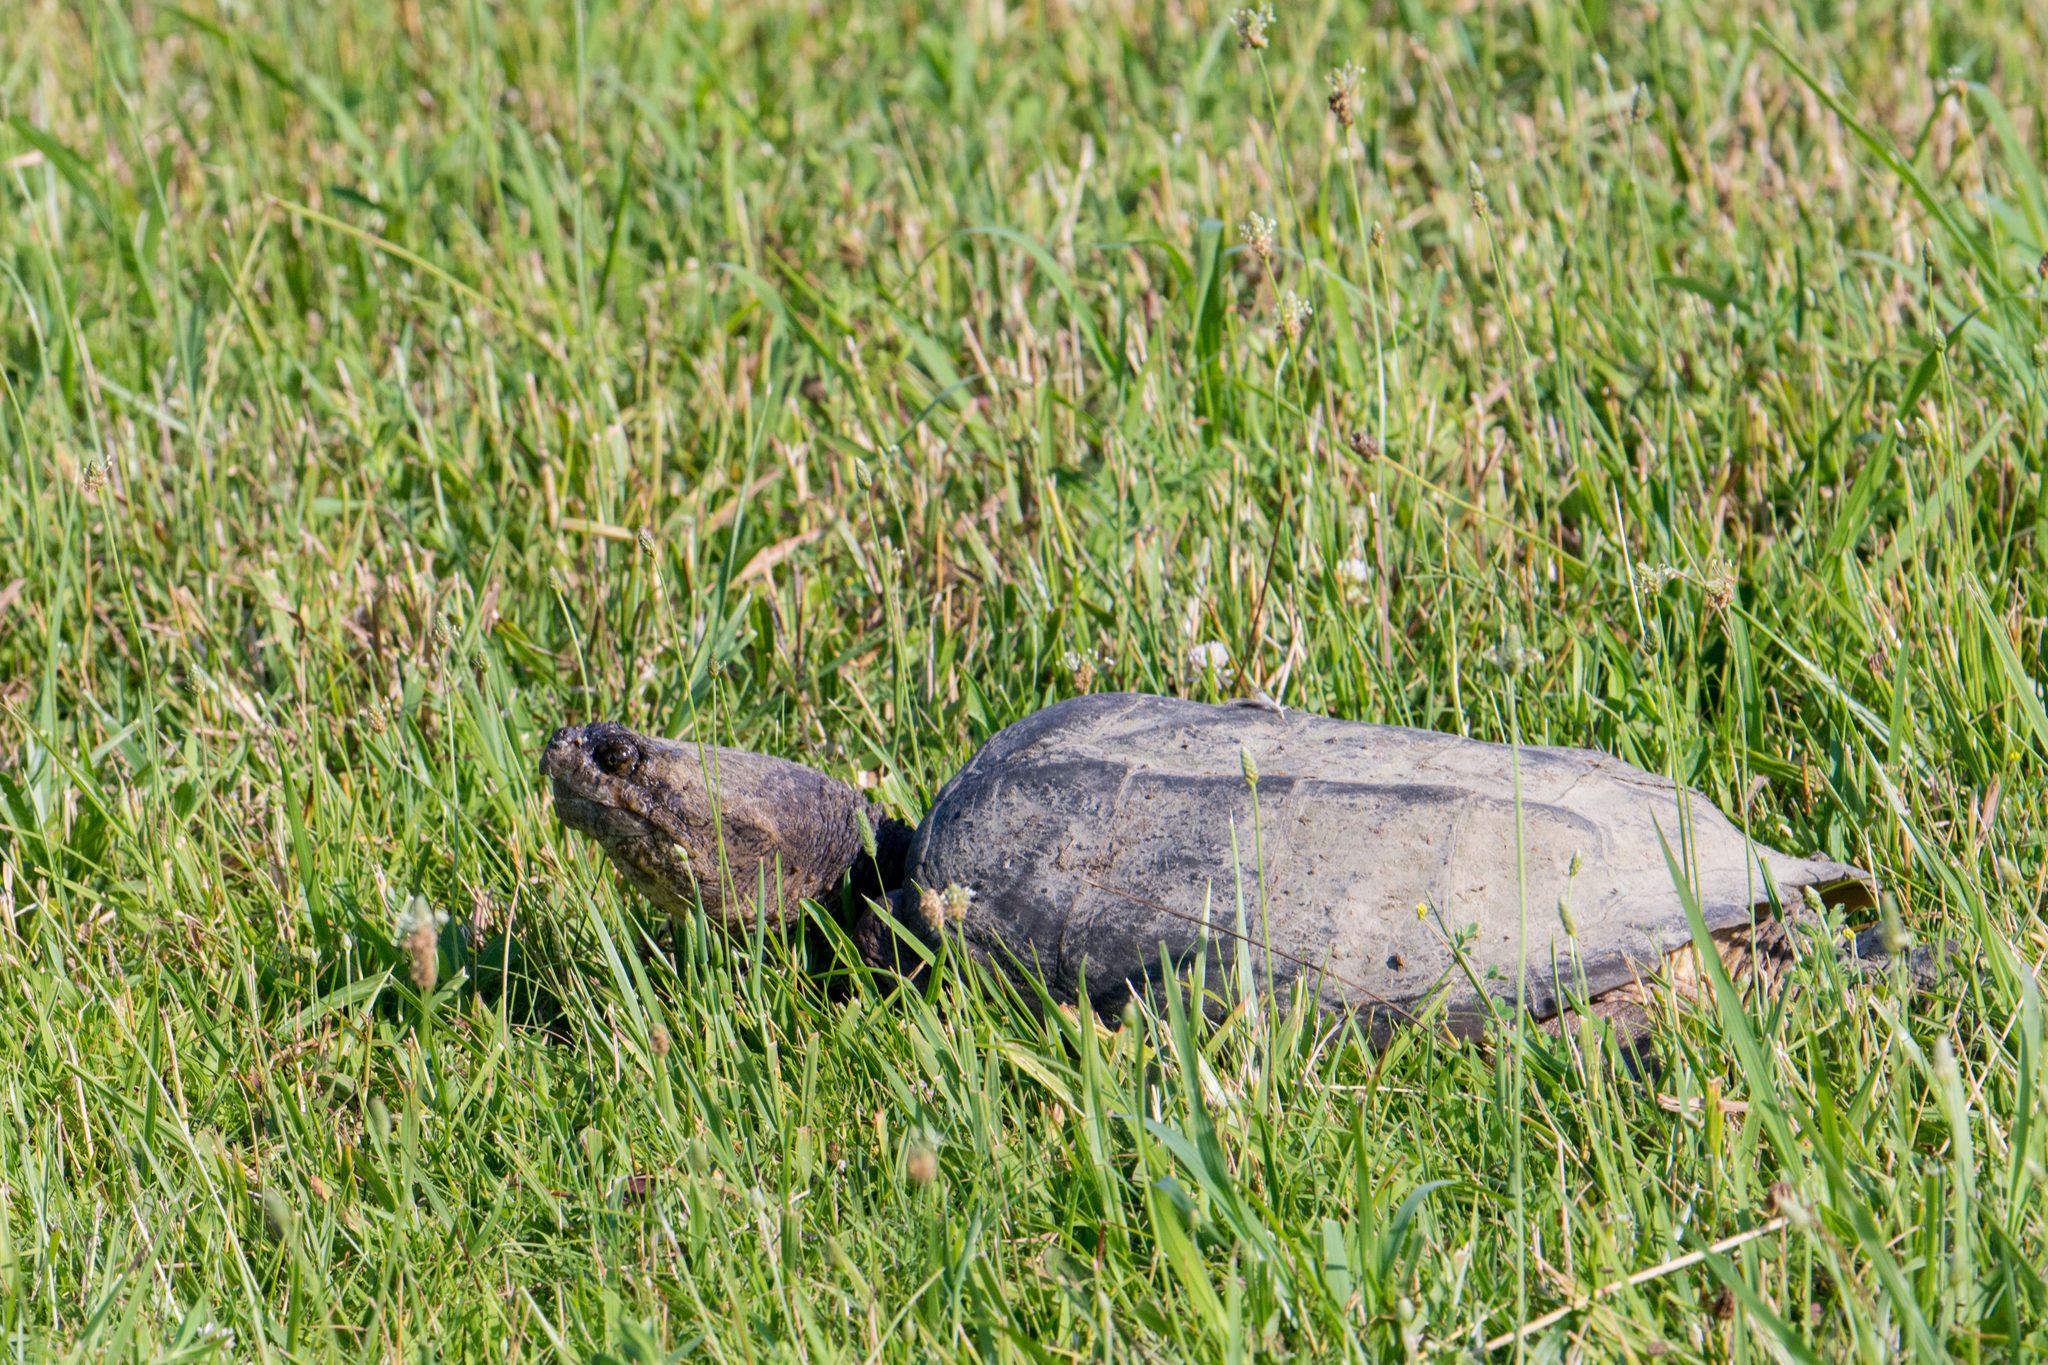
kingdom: Animalia
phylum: Chordata
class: Testudines
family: Chelydridae
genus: Chelydra
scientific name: Chelydra serpentina
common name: Common snapping turtle
